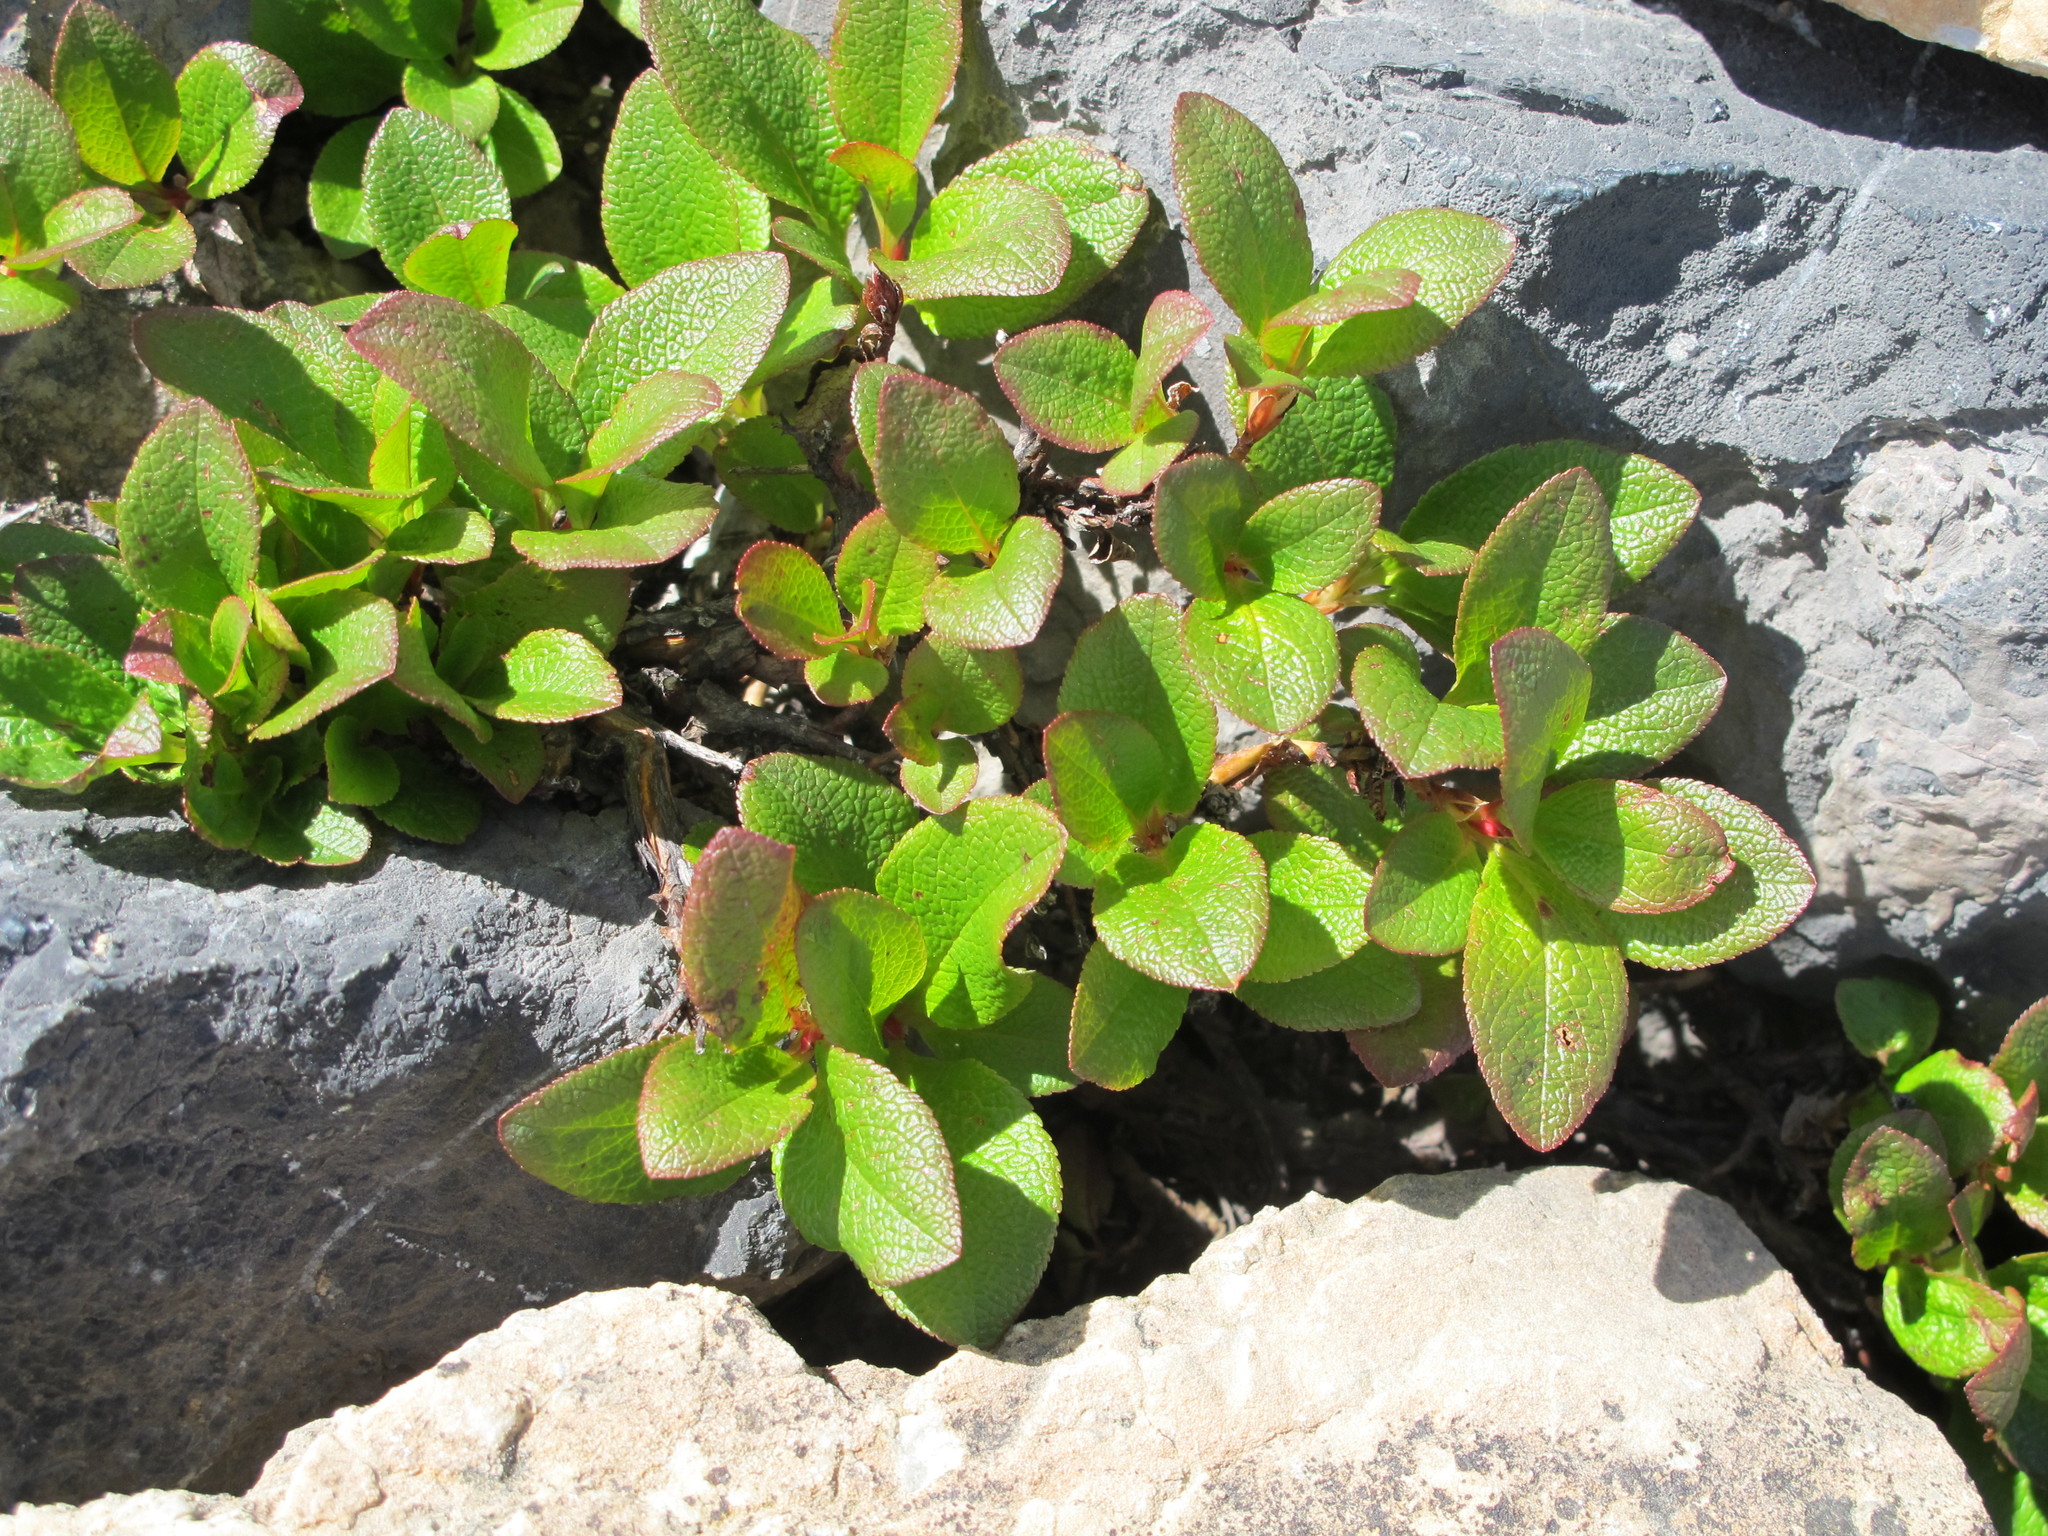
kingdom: Plantae
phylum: Tracheophyta
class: Magnoliopsida
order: Ericales
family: Ericaceae
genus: Arctostaphylos
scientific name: Arctostaphylos rubra
